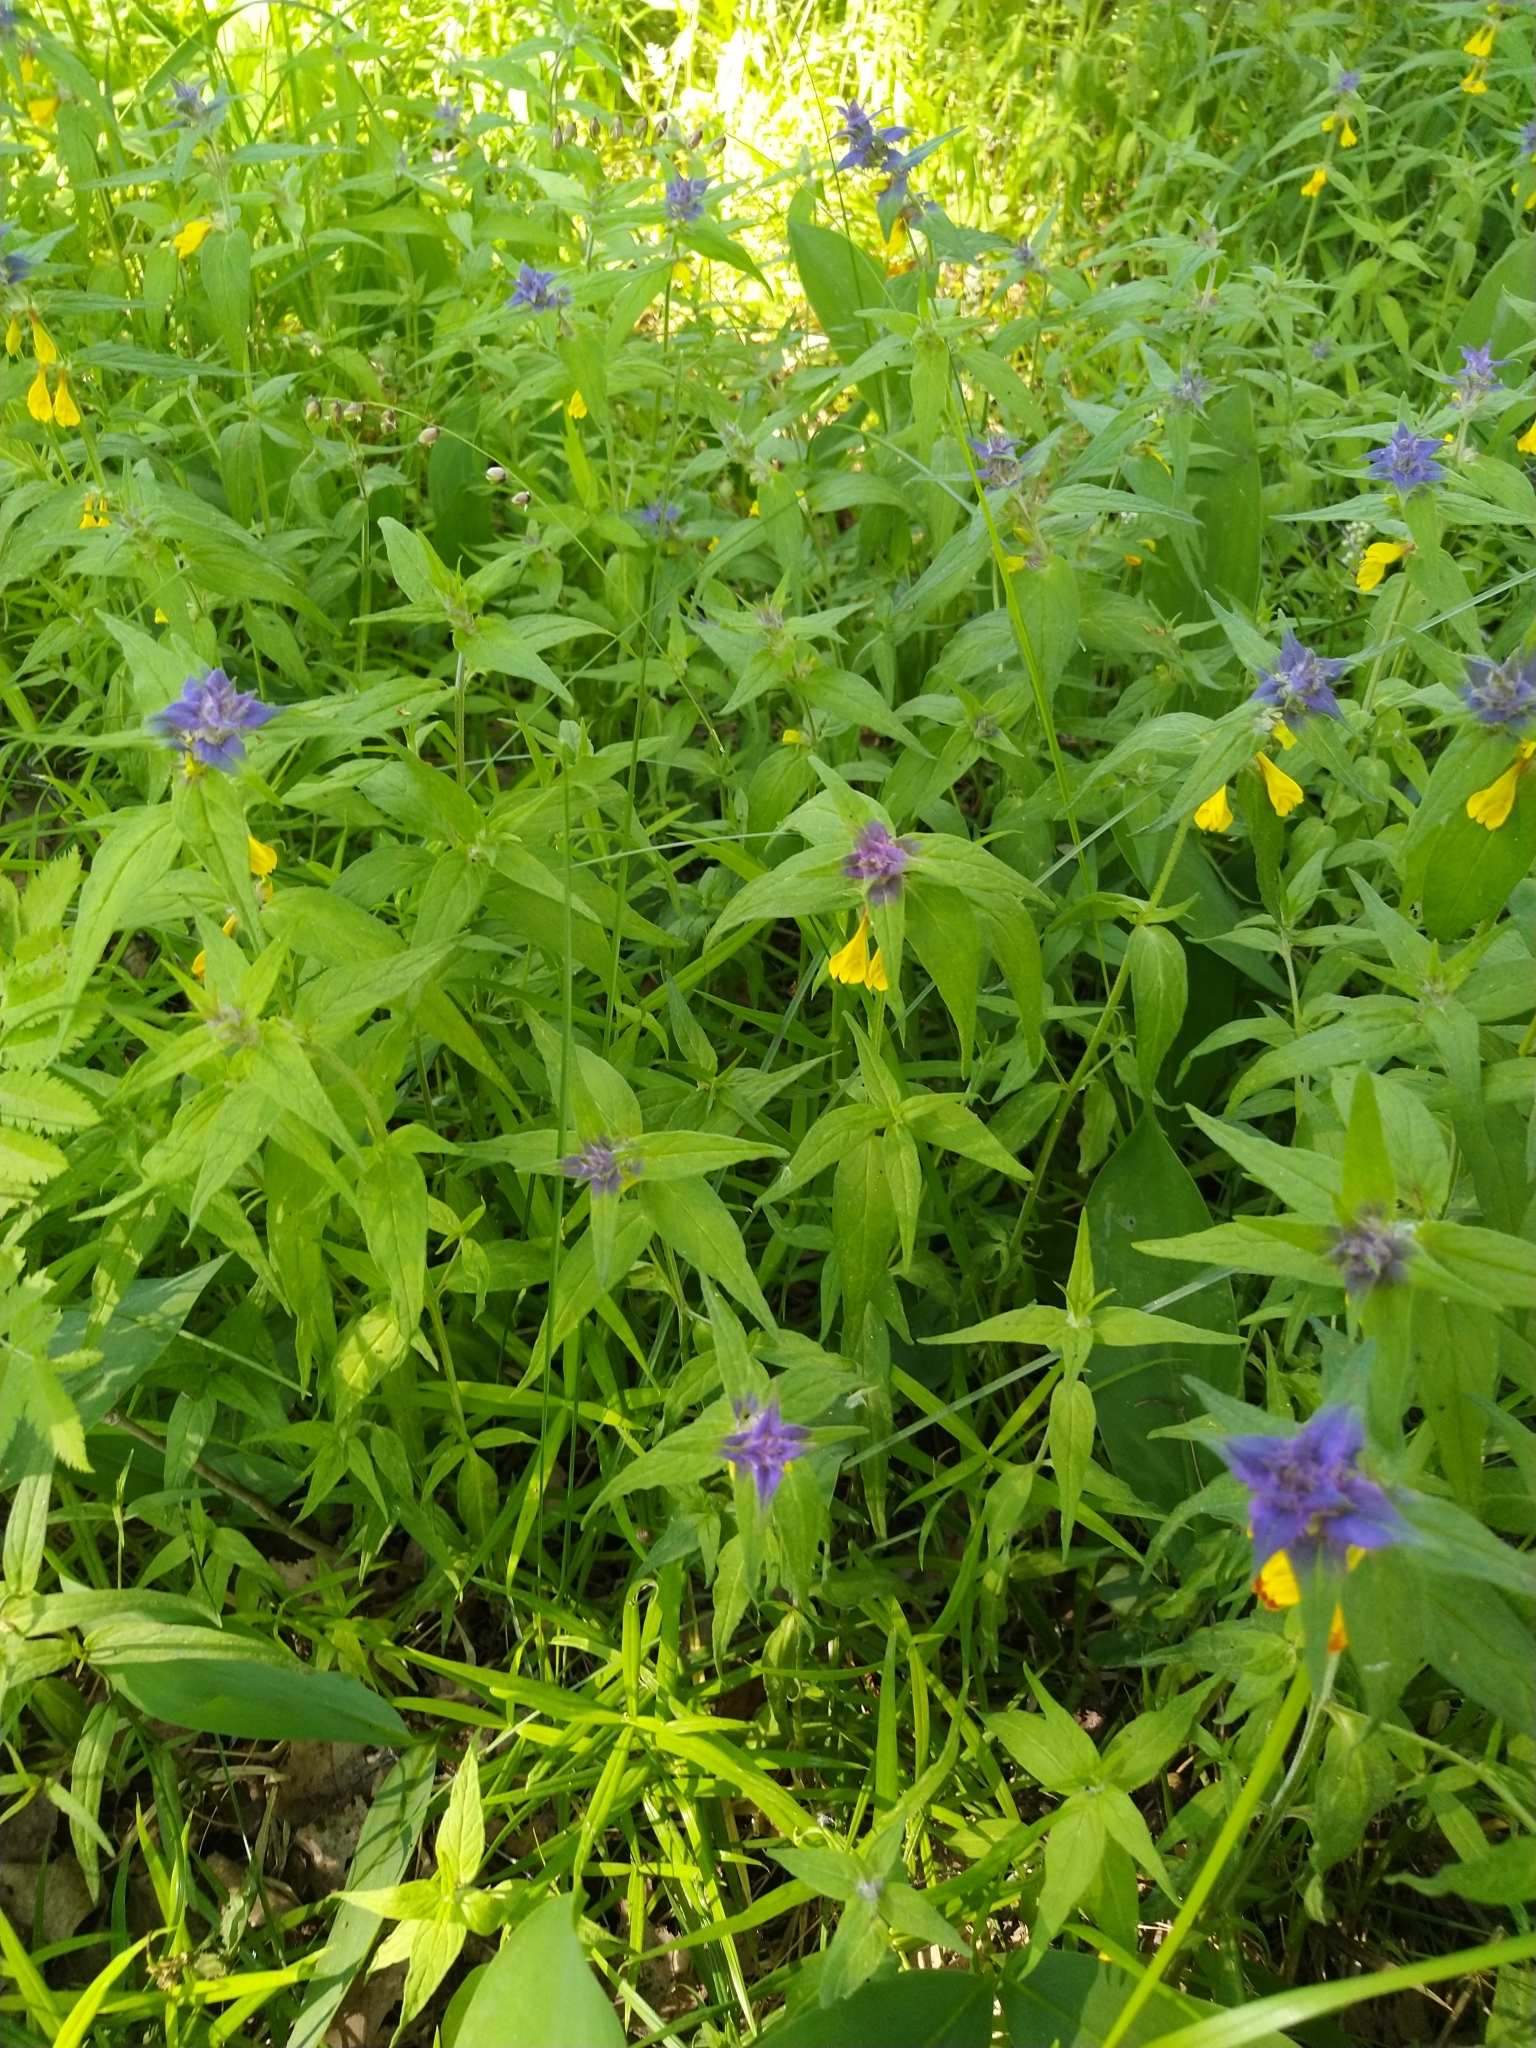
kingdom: Plantae
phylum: Tracheophyta
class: Magnoliopsida
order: Lamiales
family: Orobanchaceae
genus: Melampyrum
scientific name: Melampyrum nemorosum
